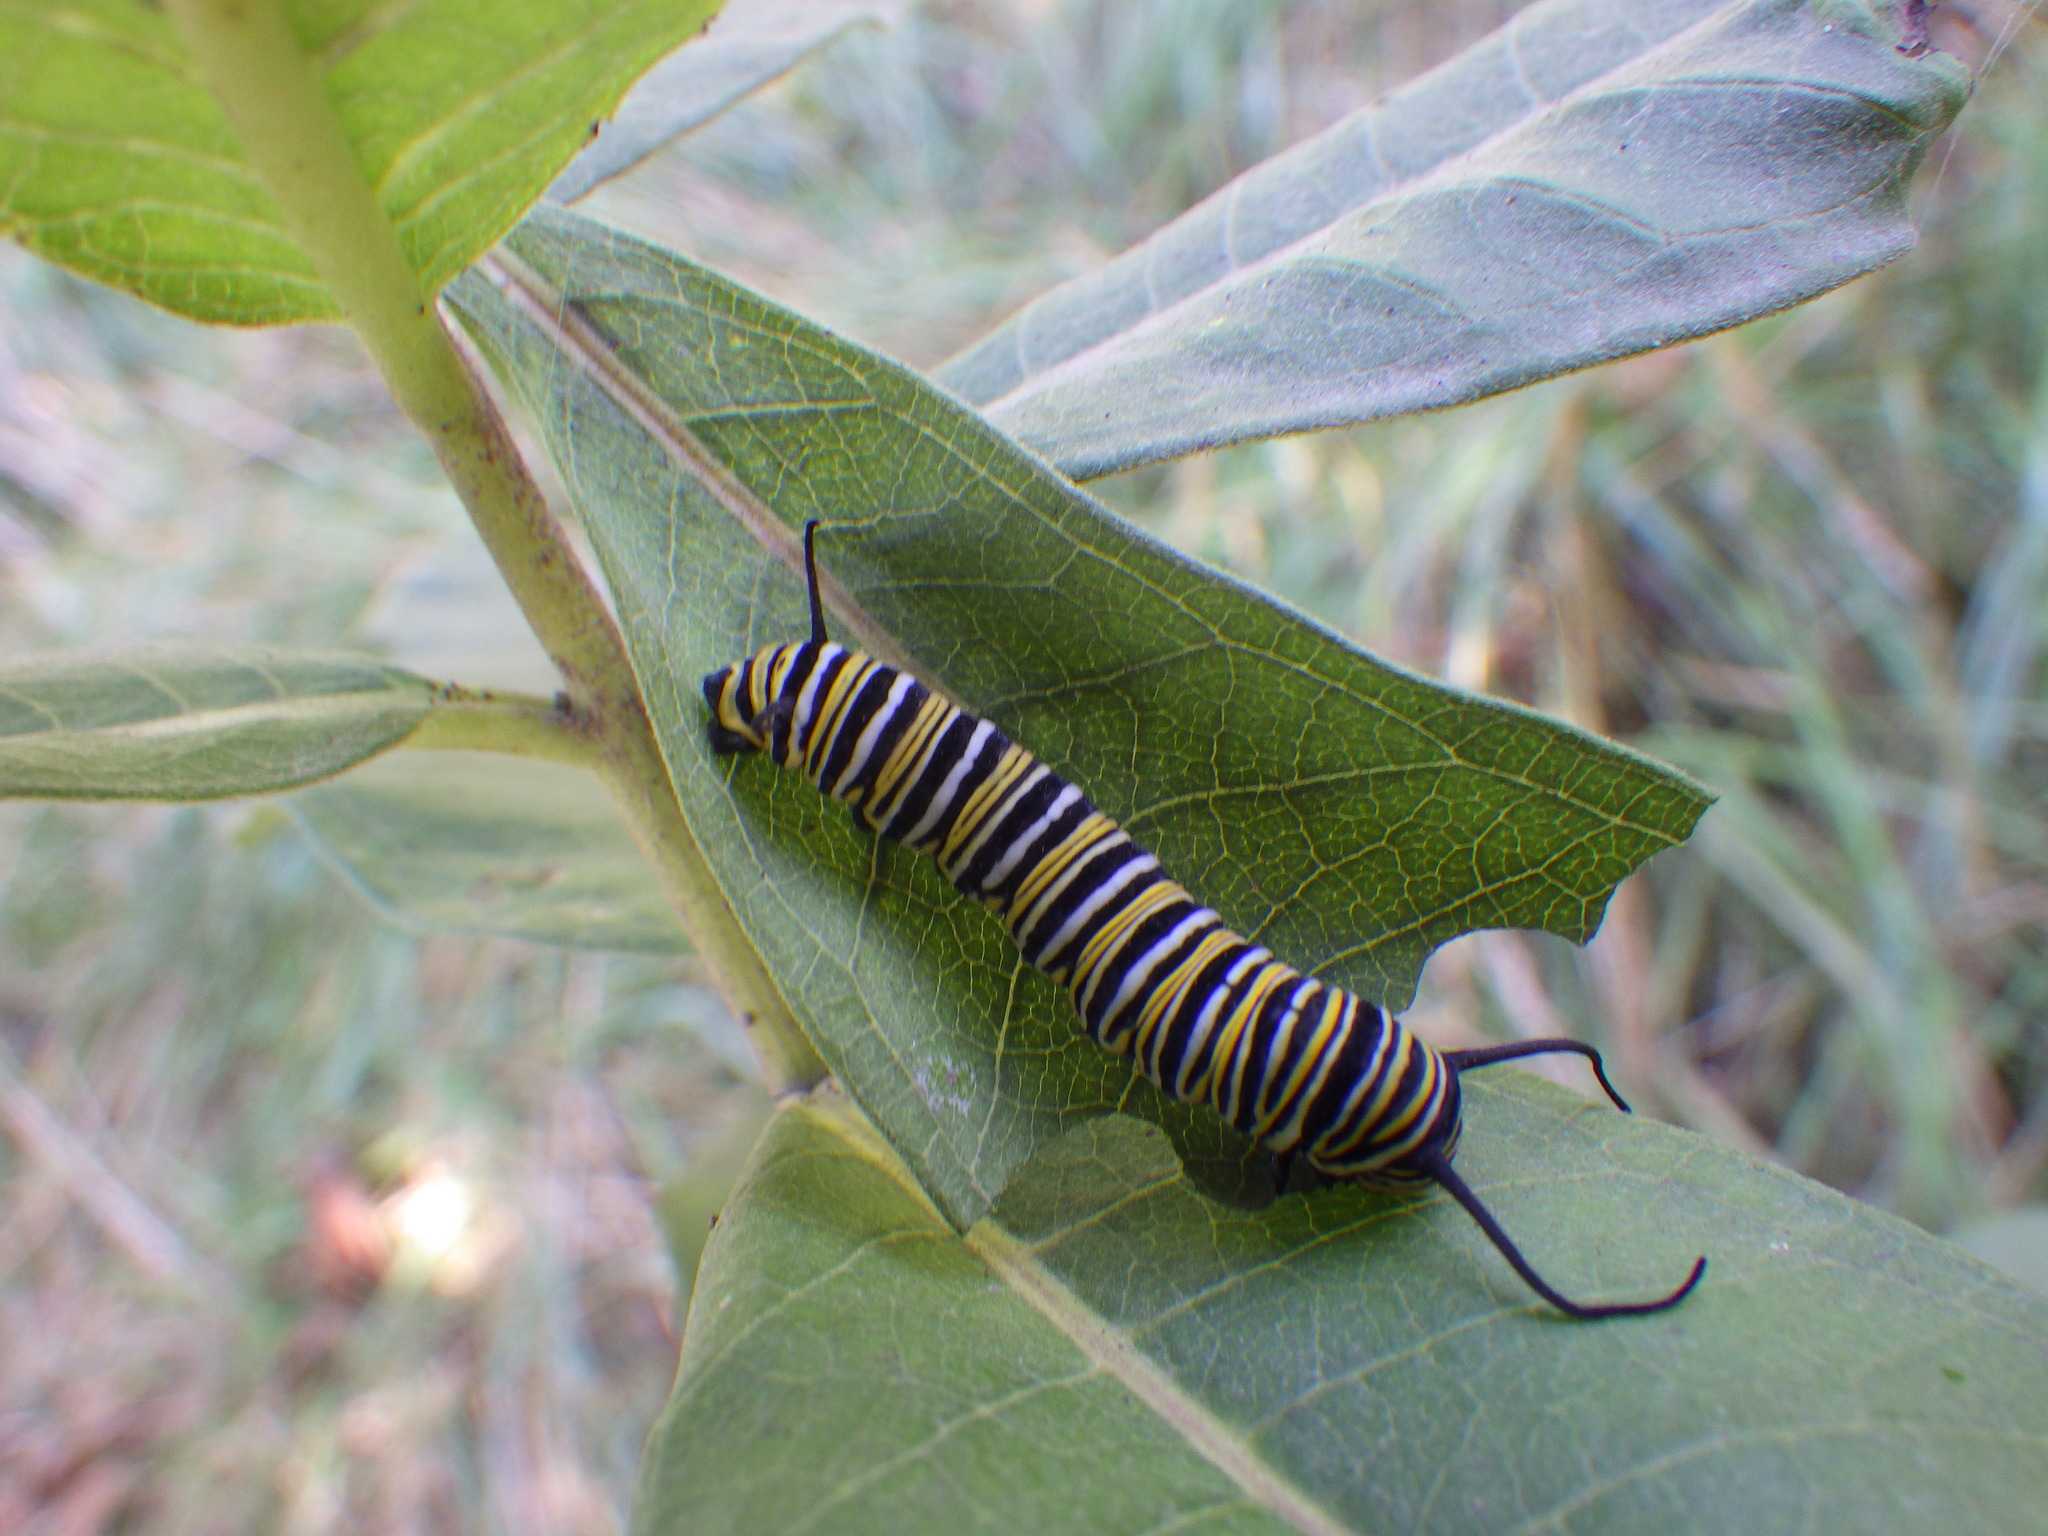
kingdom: Animalia
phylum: Arthropoda
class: Insecta
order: Lepidoptera
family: Nymphalidae
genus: Danaus
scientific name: Danaus plexippus
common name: Monarch
